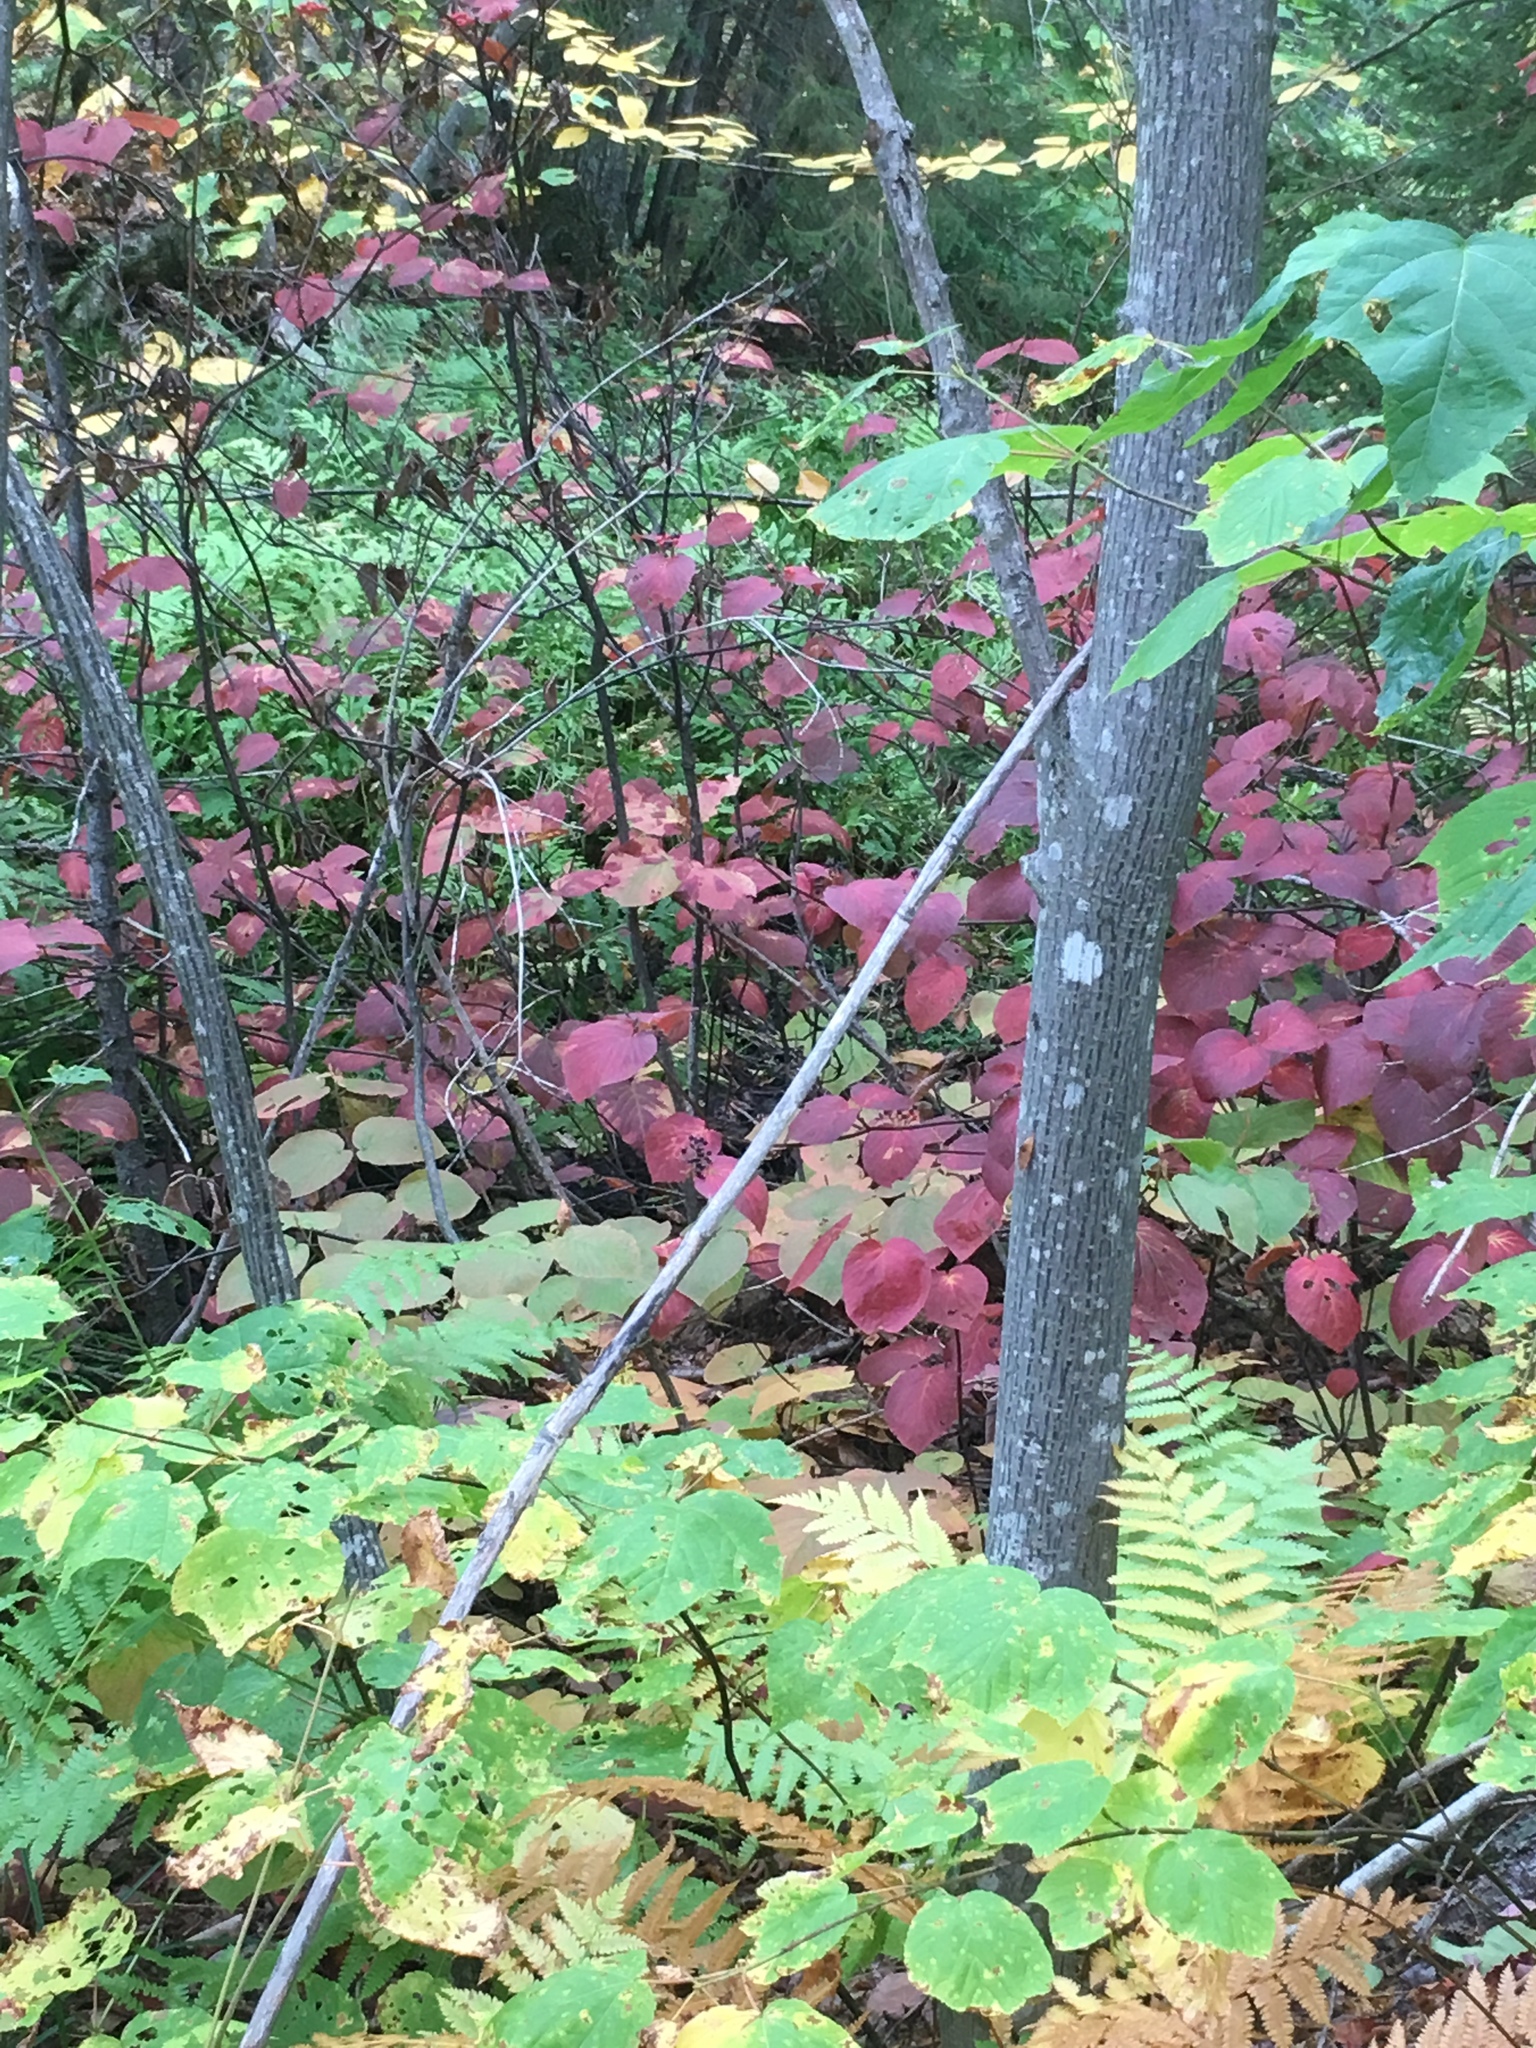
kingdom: Plantae
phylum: Tracheophyta
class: Magnoliopsida
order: Dipsacales
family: Viburnaceae
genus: Viburnum
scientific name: Viburnum lantanoides
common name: Hobblebush
